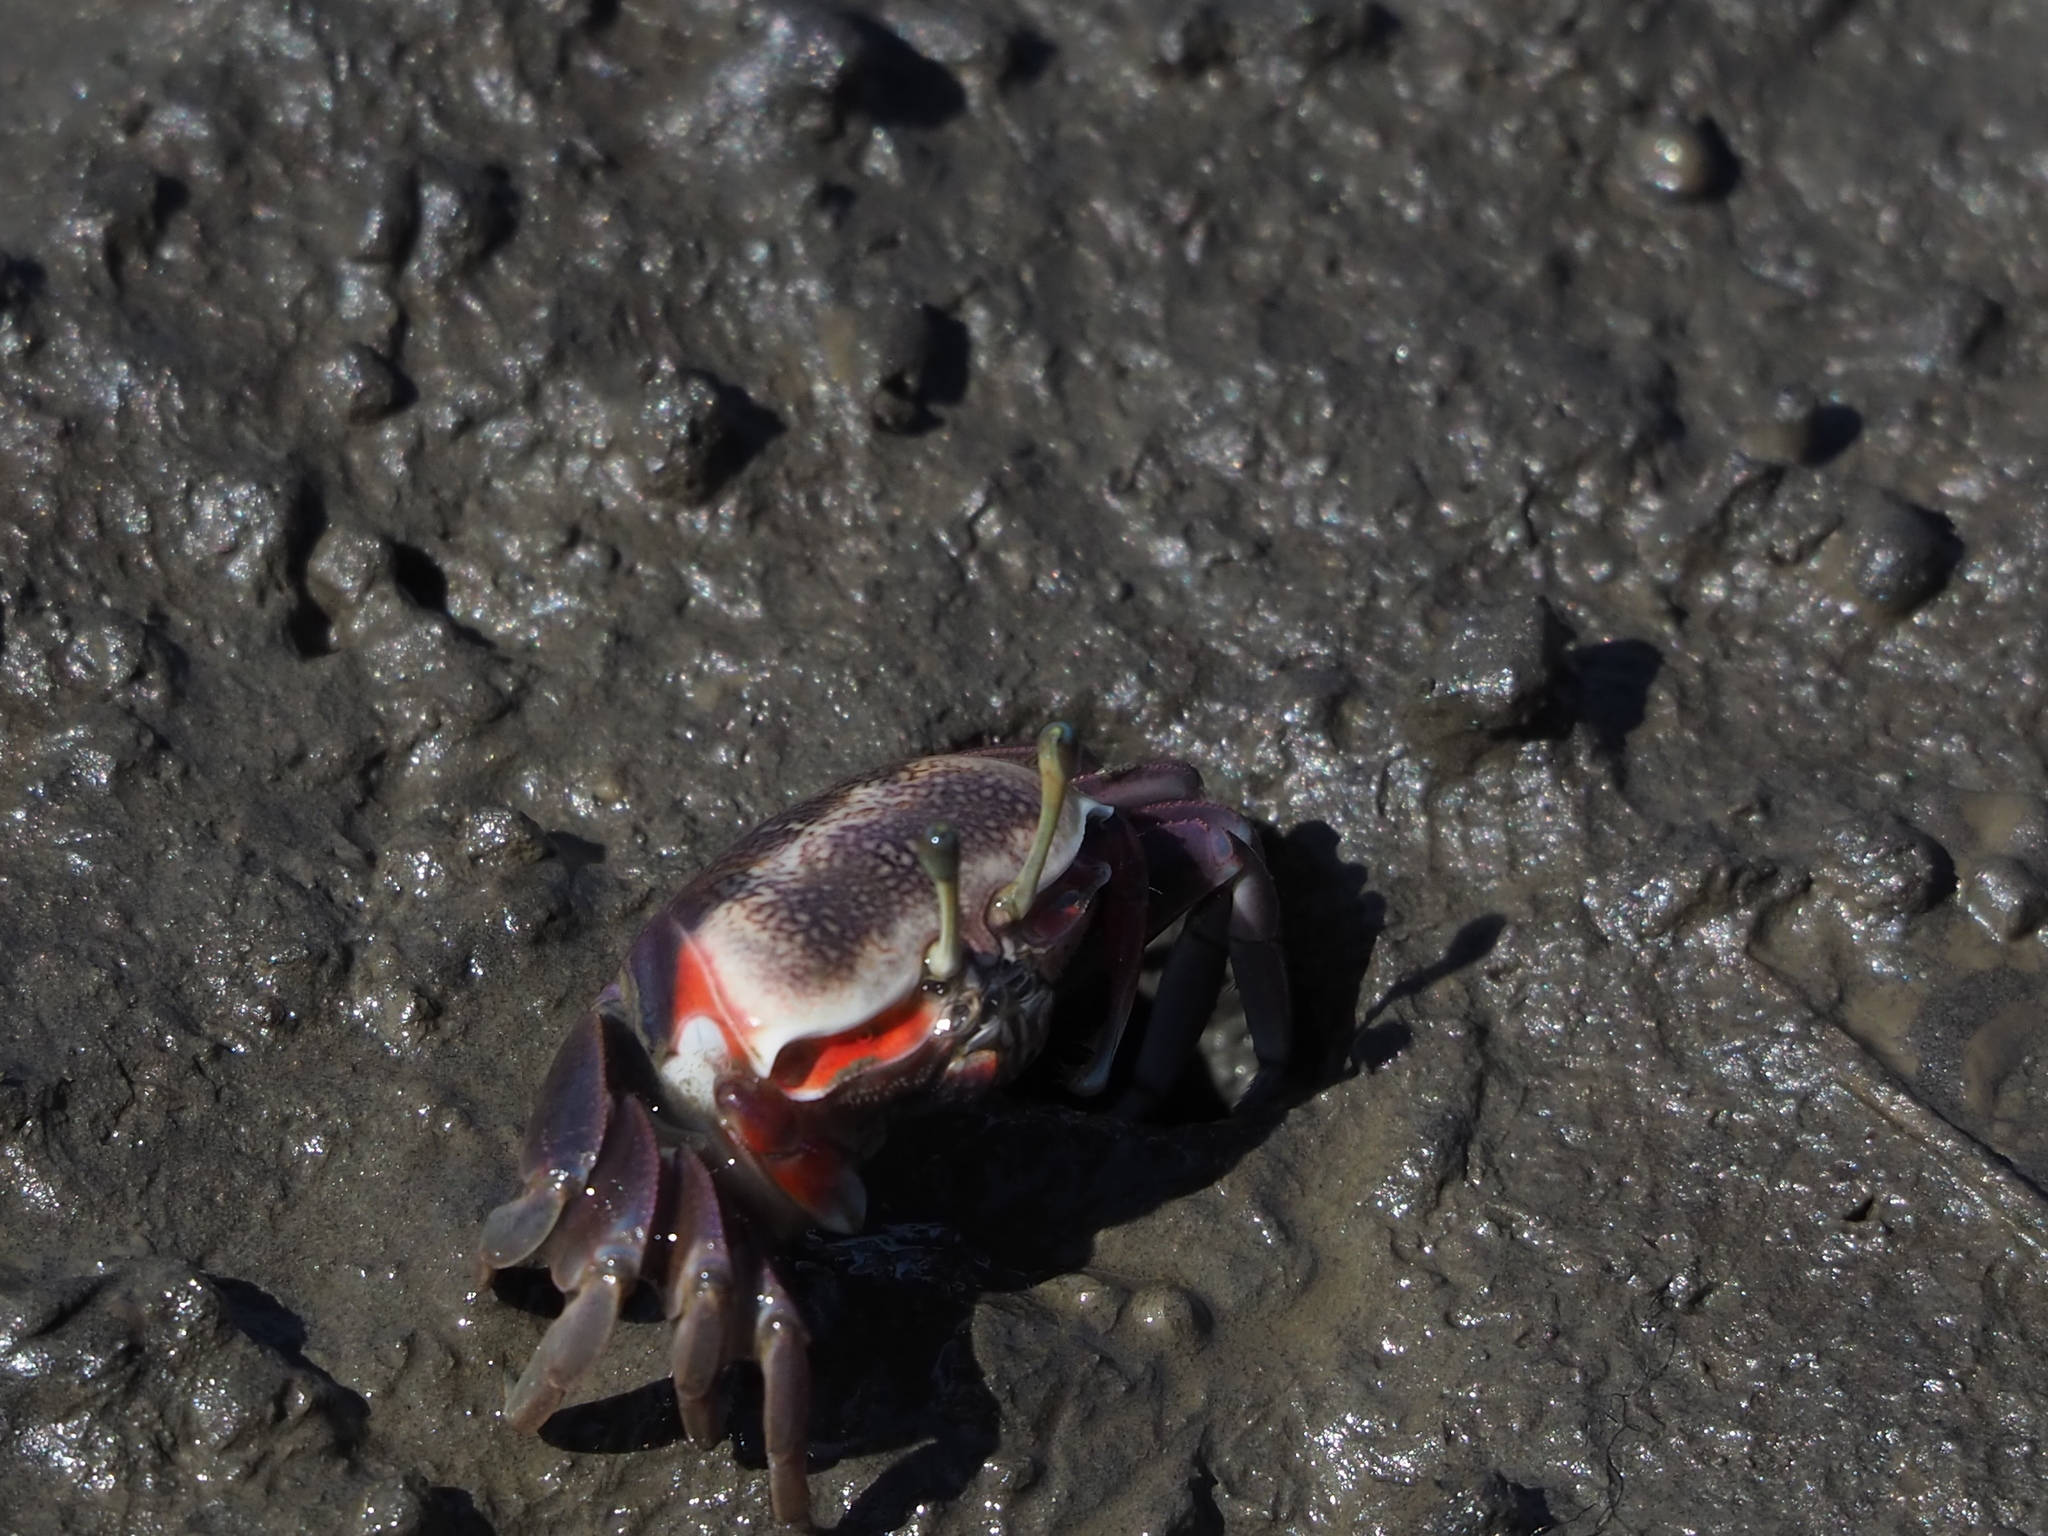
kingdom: Animalia
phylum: Arthropoda
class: Malacostraca
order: Decapoda
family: Ocypodidae
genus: Tubuca
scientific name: Tubuca arcuata
